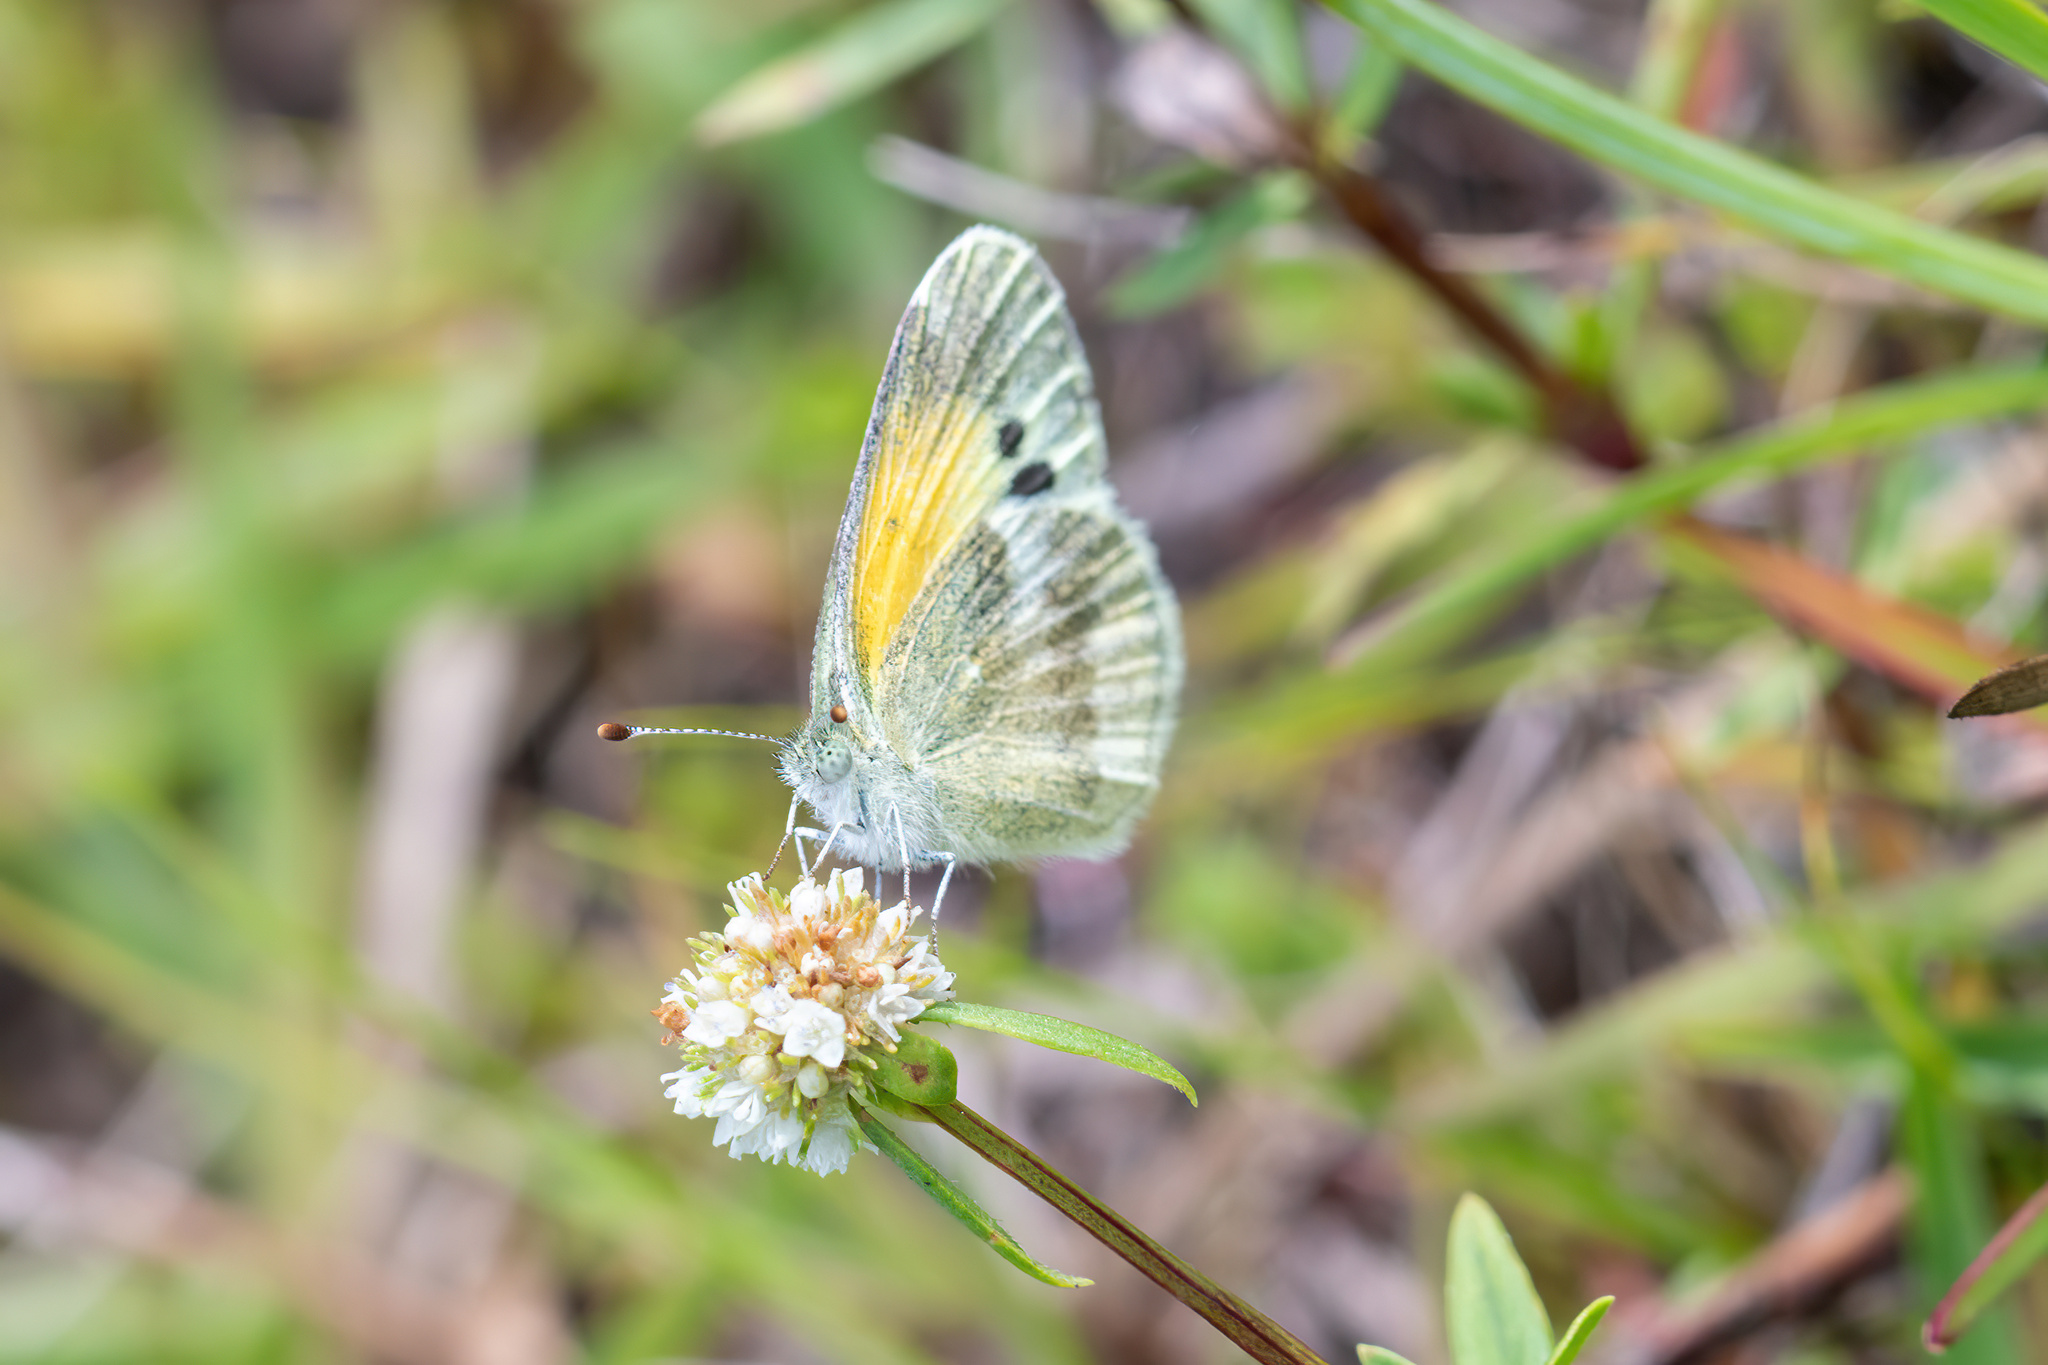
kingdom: Animalia
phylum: Arthropoda
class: Insecta
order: Lepidoptera
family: Pieridae
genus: Nathalis
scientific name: Nathalis iole
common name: Dainty sulphur
